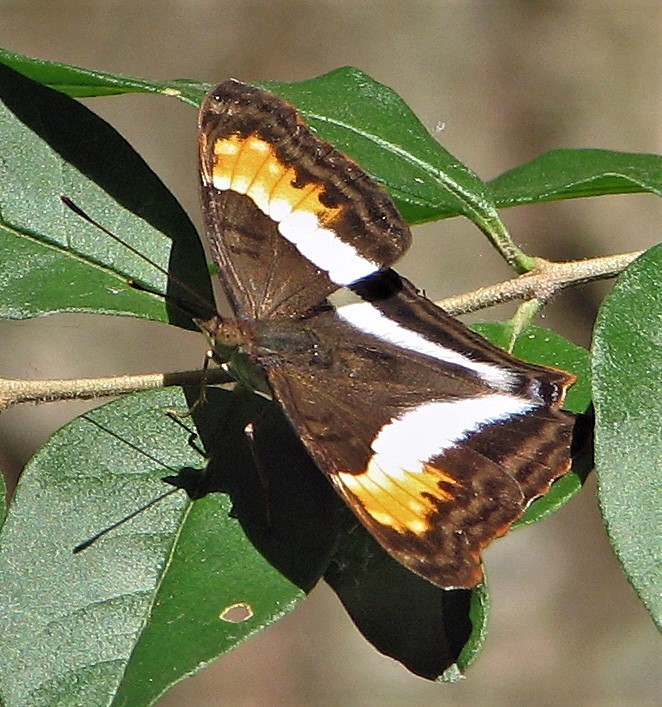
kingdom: Animalia
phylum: Arthropoda
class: Insecta
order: Lepidoptera
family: Nymphalidae
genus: Doxocopa
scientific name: Doxocopa laurentia
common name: Turquoise emperor
